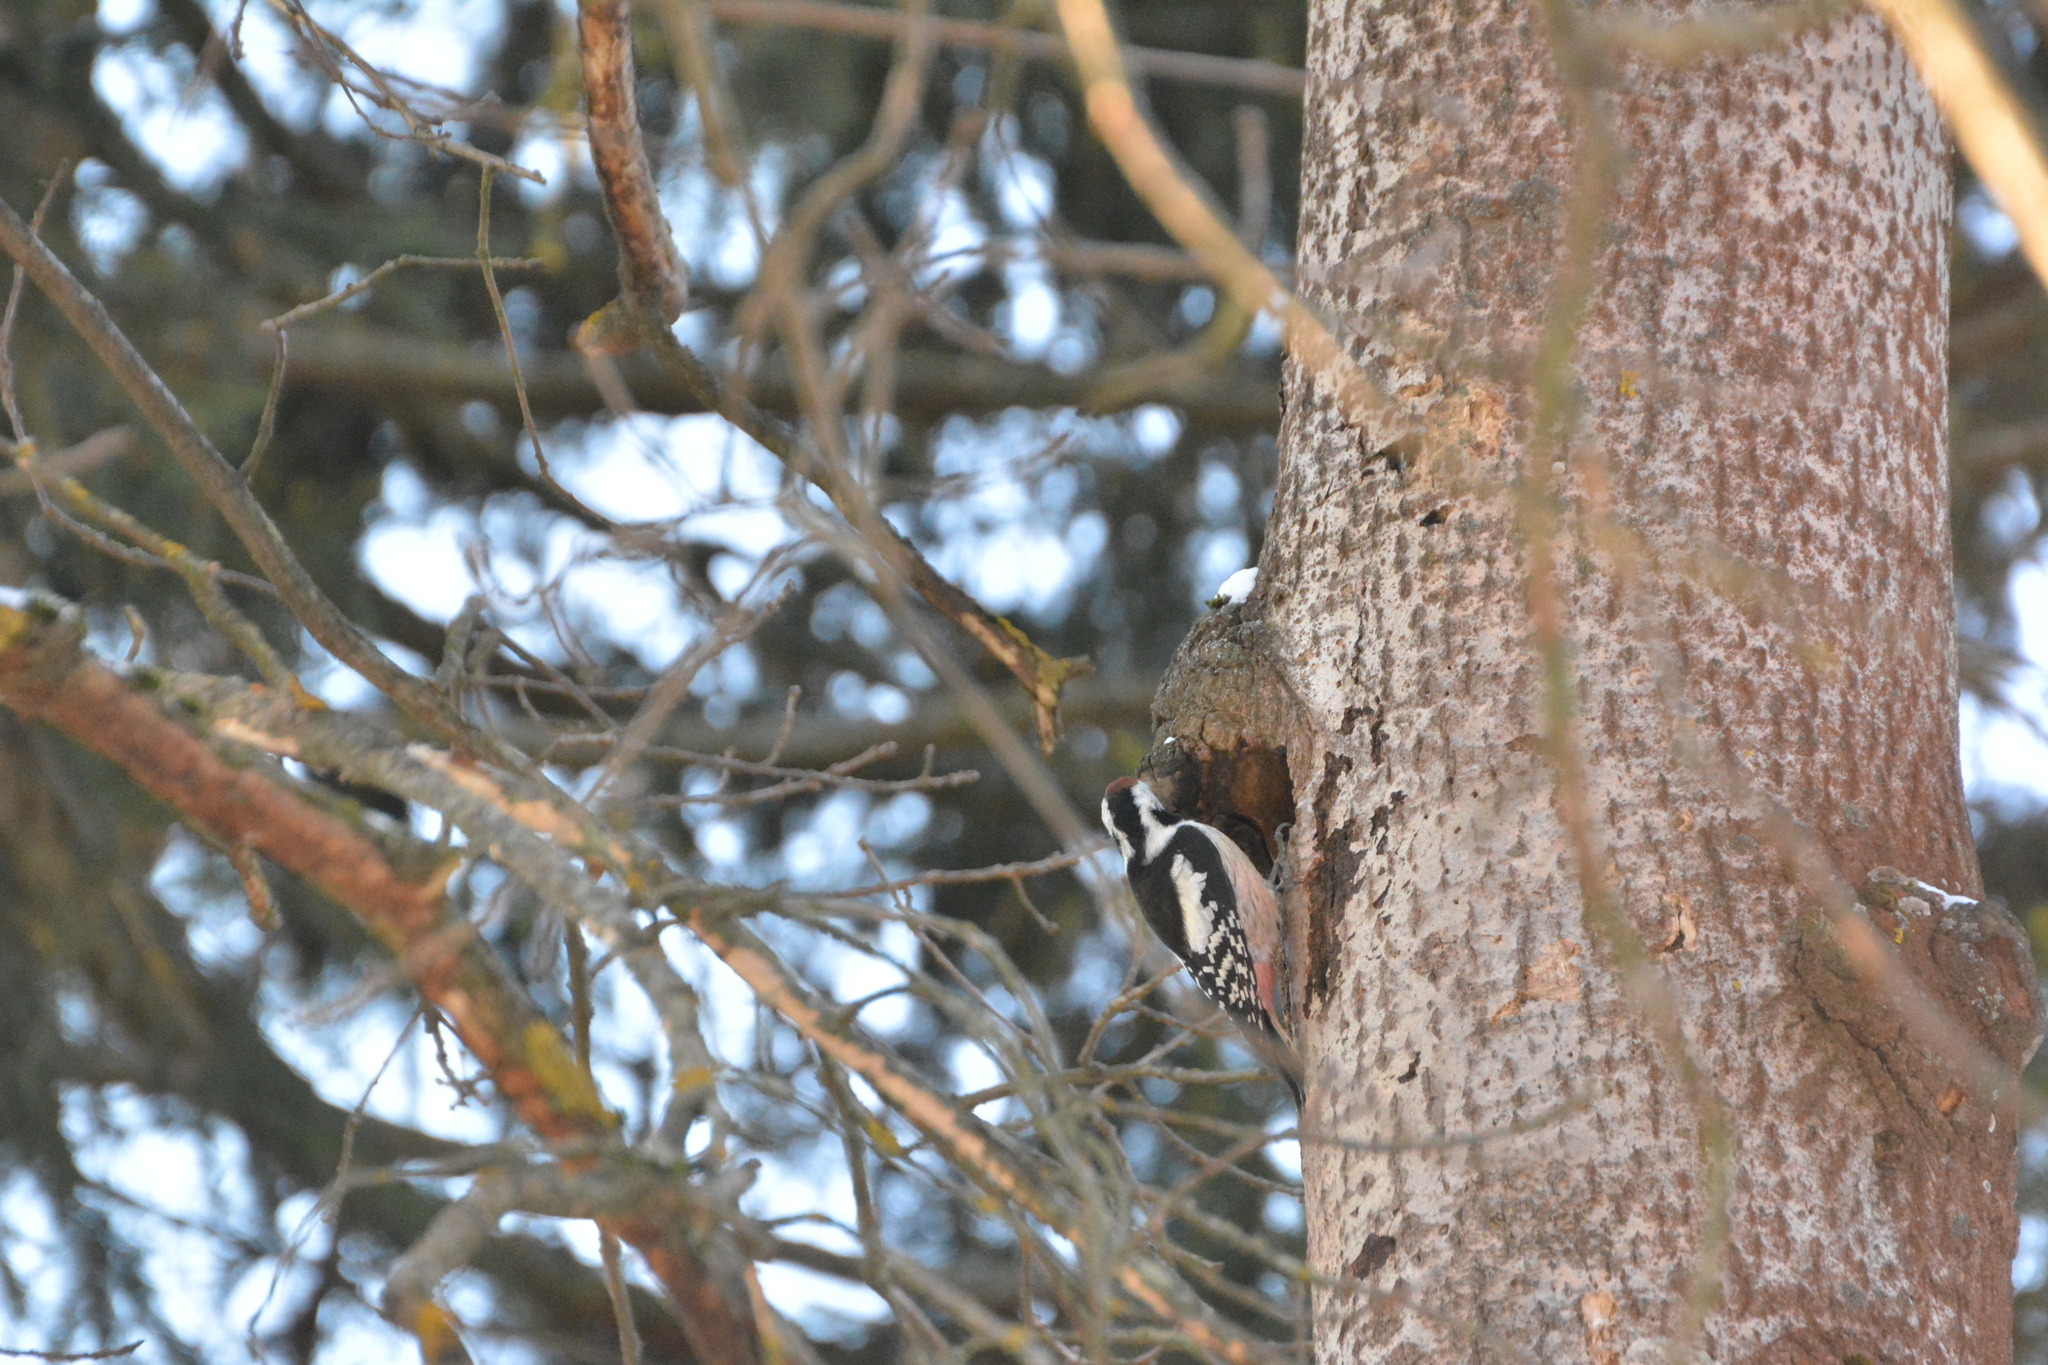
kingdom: Animalia
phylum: Chordata
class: Aves
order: Piciformes
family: Picidae
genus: Dendrocoptes
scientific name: Dendrocoptes medius
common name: Middle spotted woodpecker
